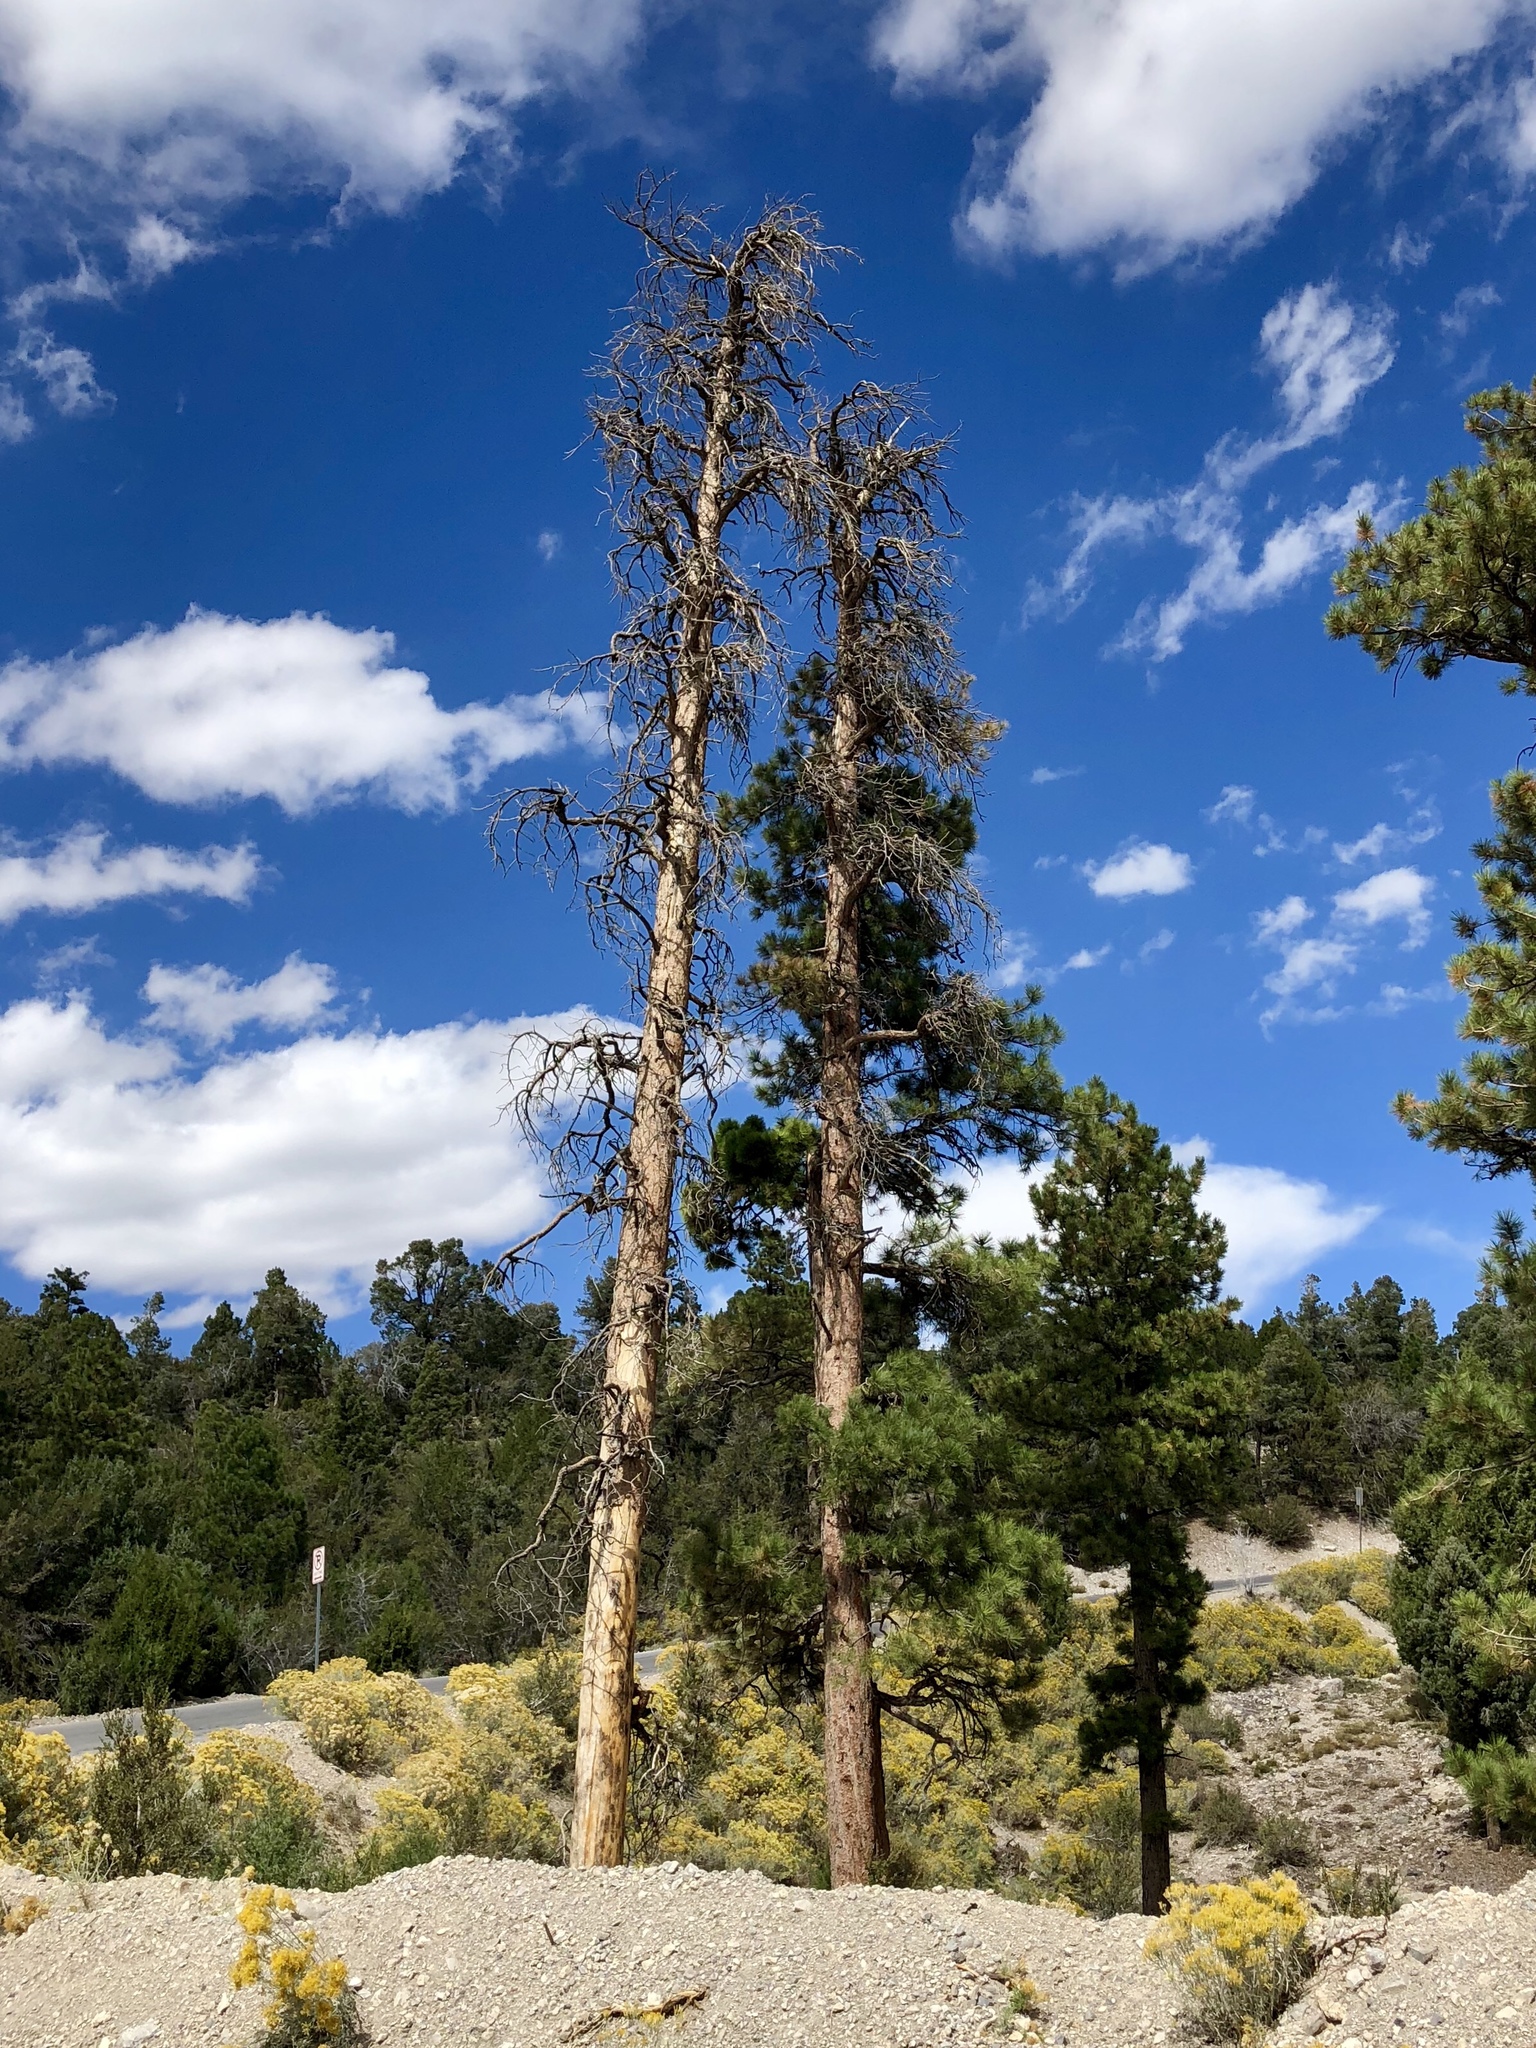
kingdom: Plantae
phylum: Tracheophyta
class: Pinopsida
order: Pinales
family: Pinaceae
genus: Pinus
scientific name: Pinus ponderosa
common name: Western yellow-pine
